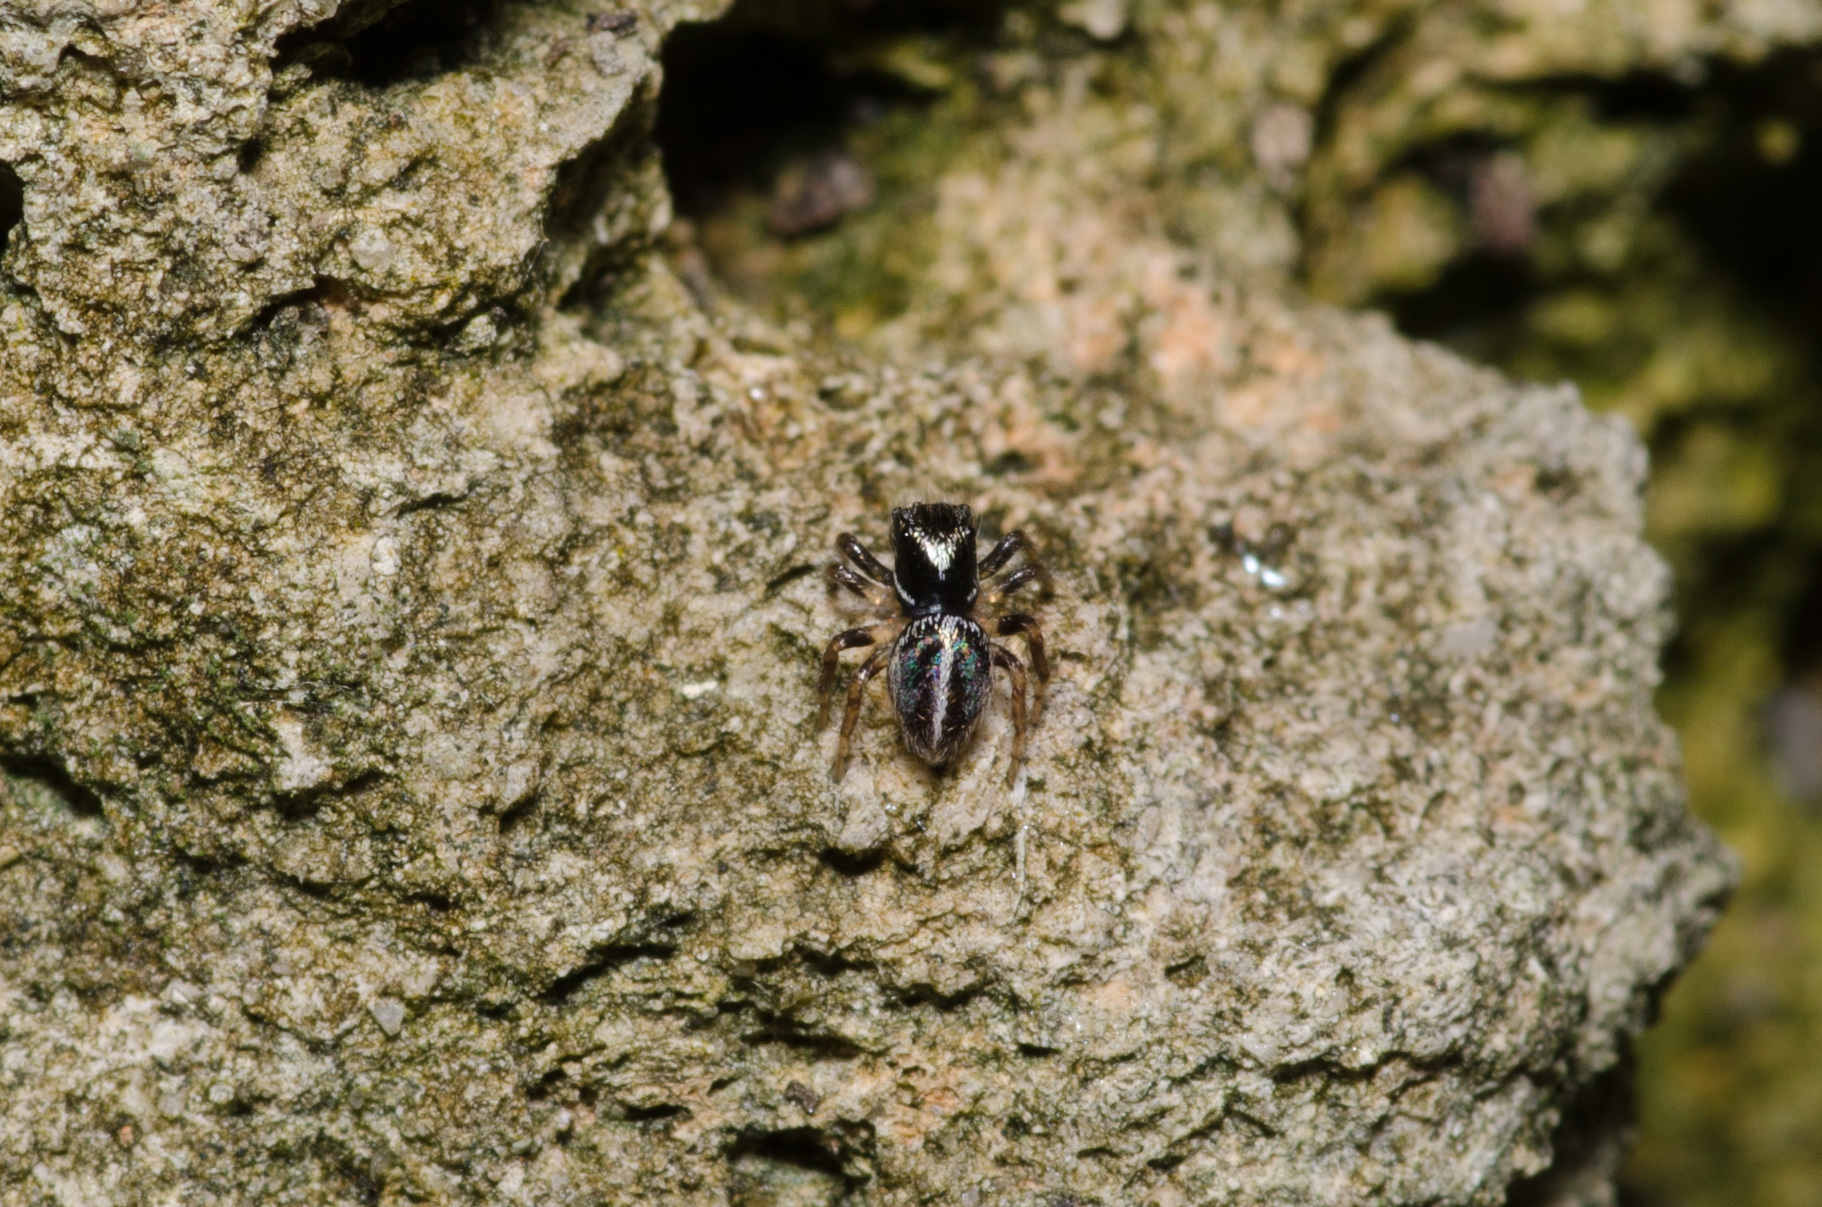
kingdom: Animalia
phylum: Arthropoda
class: Arachnida
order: Araneae
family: Salticidae
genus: Anasaitis
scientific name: Anasaitis canosa
